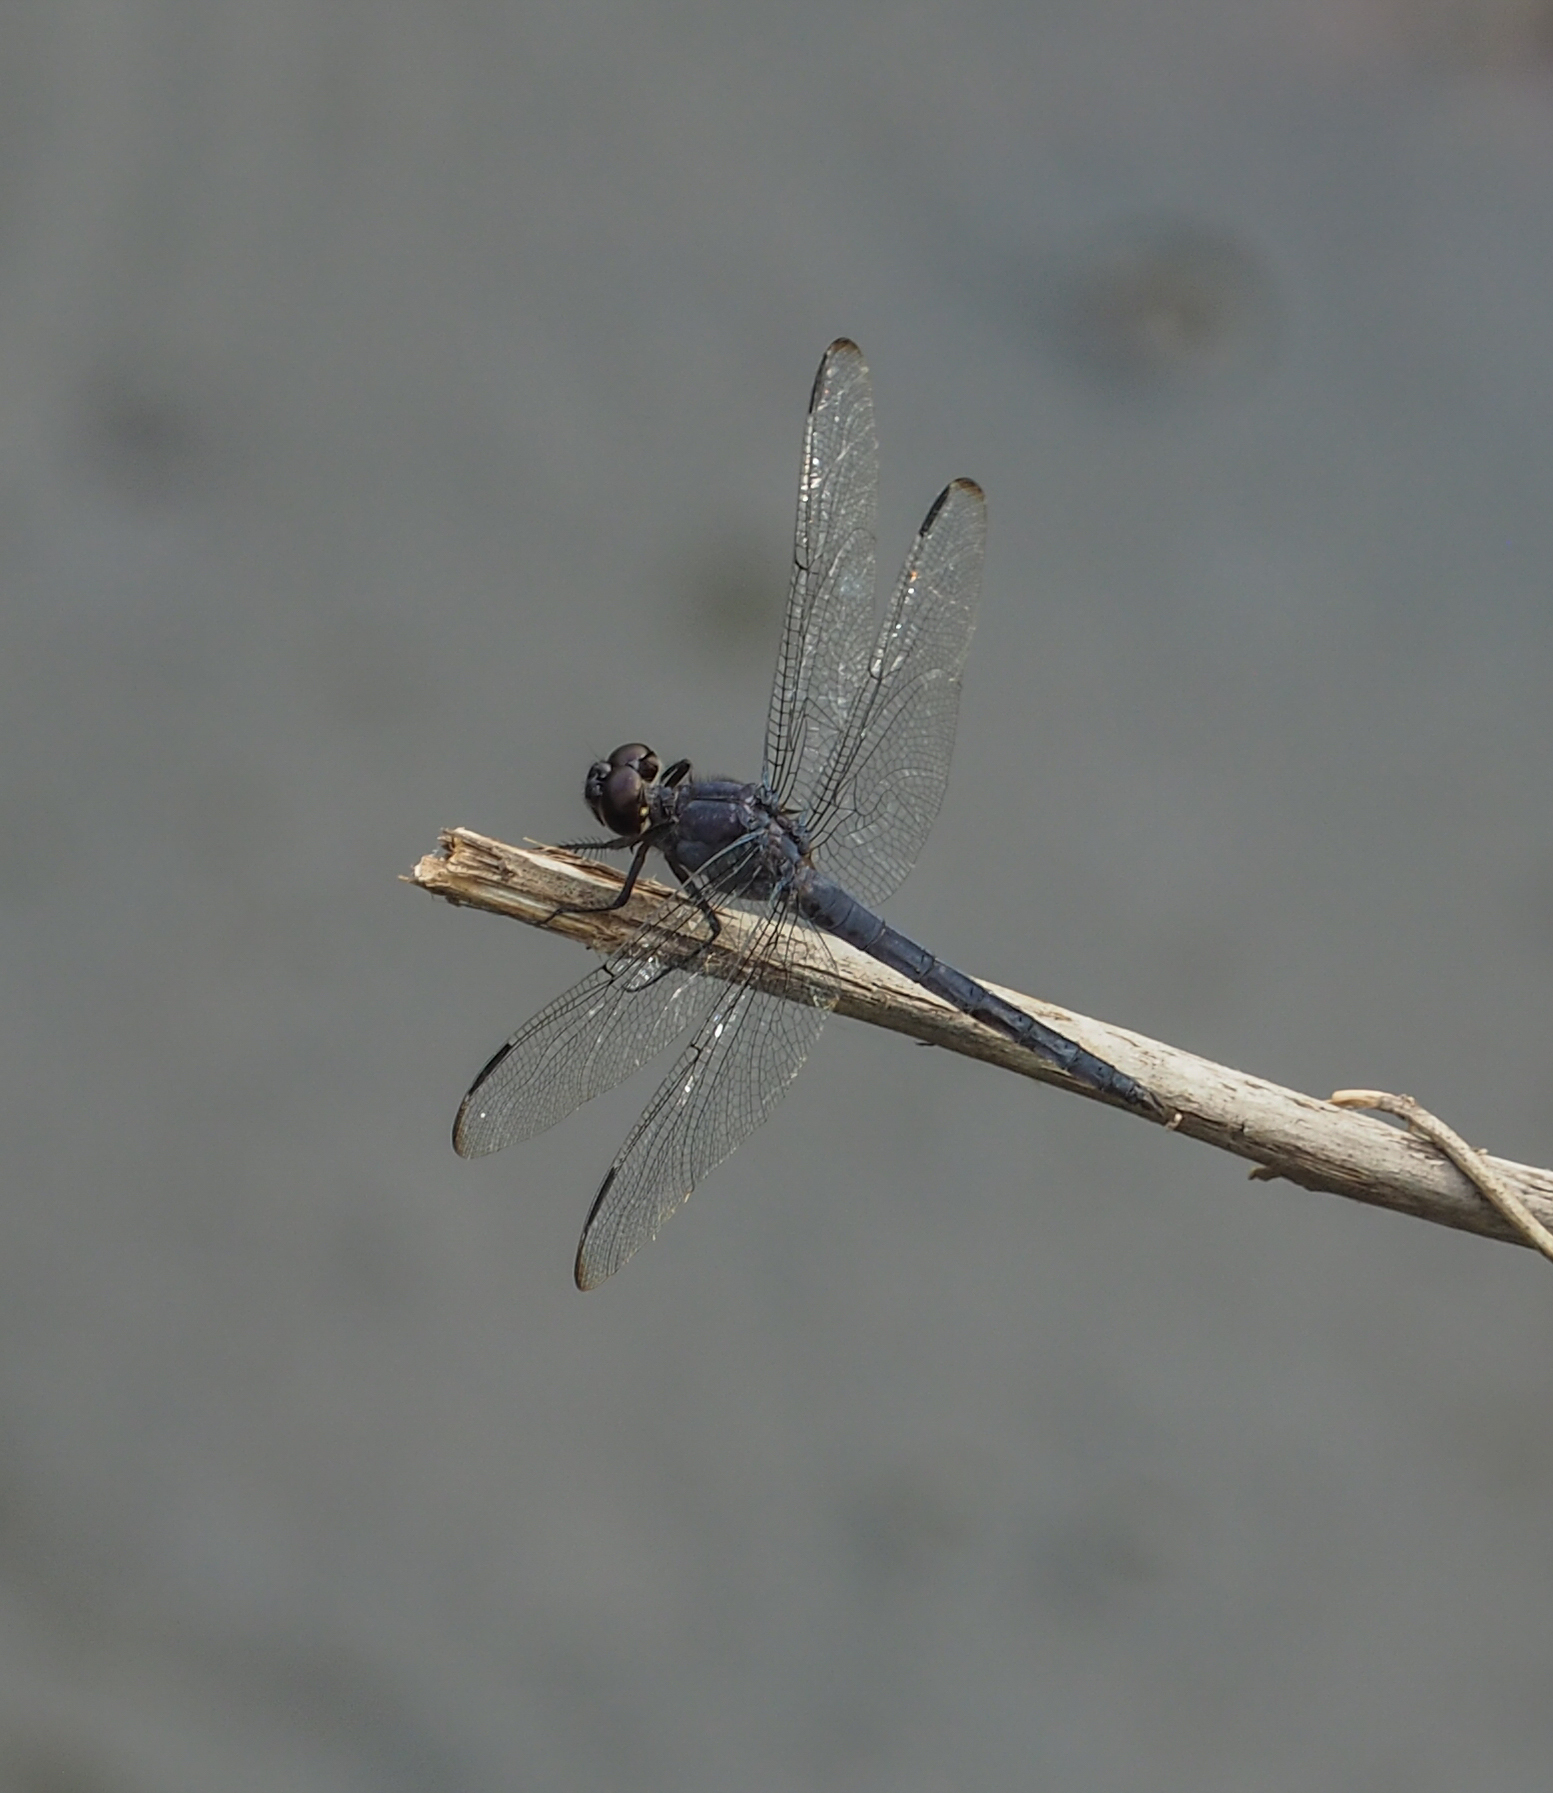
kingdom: Animalia
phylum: Arthropoda
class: Insecta
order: Odonata
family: Libellulidae
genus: Libellula
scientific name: Libellula incesta
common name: Slaty skimmer
